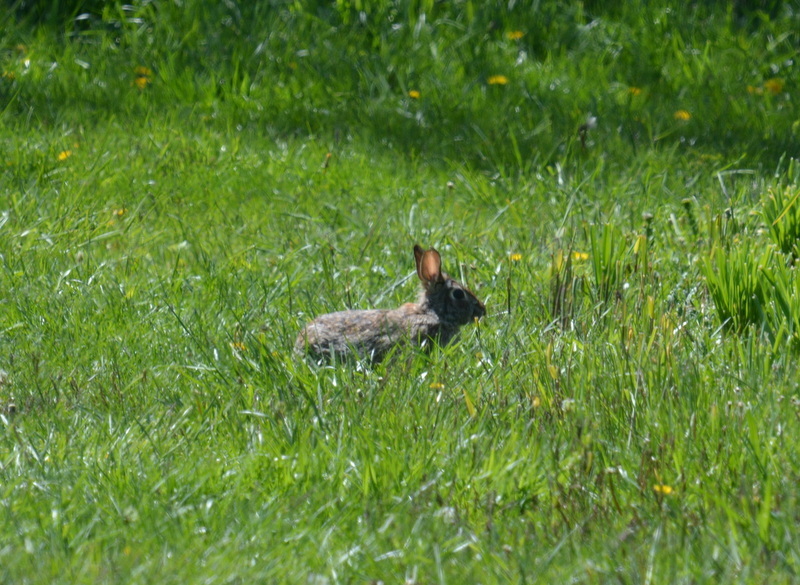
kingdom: Animalia
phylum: Chordata
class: Mammalia
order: Lagomorpha
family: Leporidae
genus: Sylvilagus
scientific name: Sylvilagus floridanus
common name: Eastern cottontail
